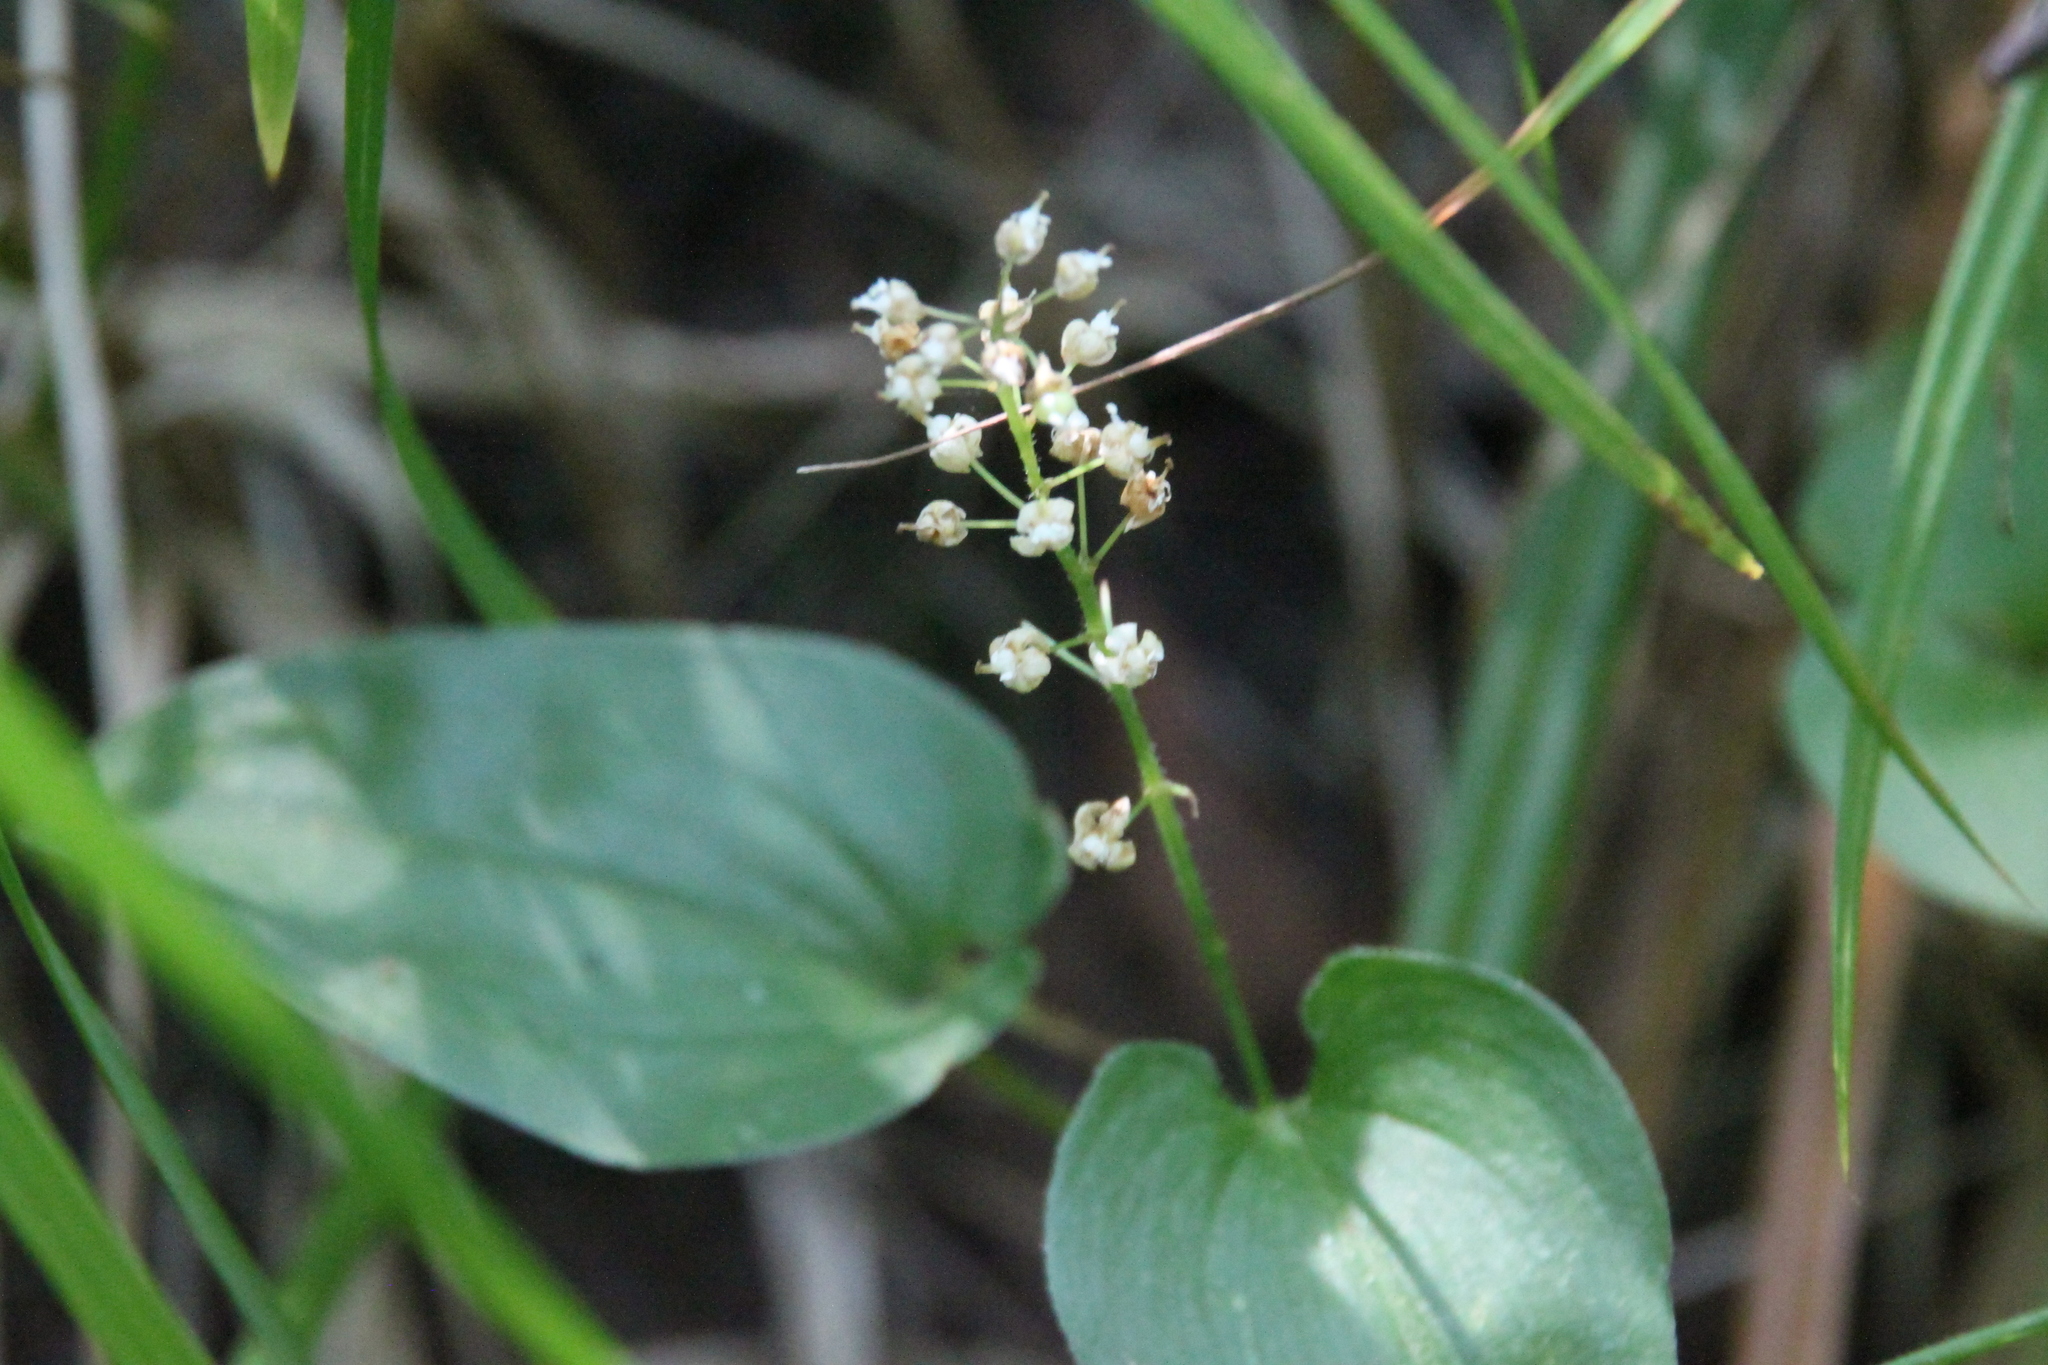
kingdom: Plantae
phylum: Tracheophyta
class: Liliopsida
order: Asparagales
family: Asparagaceae
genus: Maianthemum
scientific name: Maianthemum bifolium
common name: May lily
